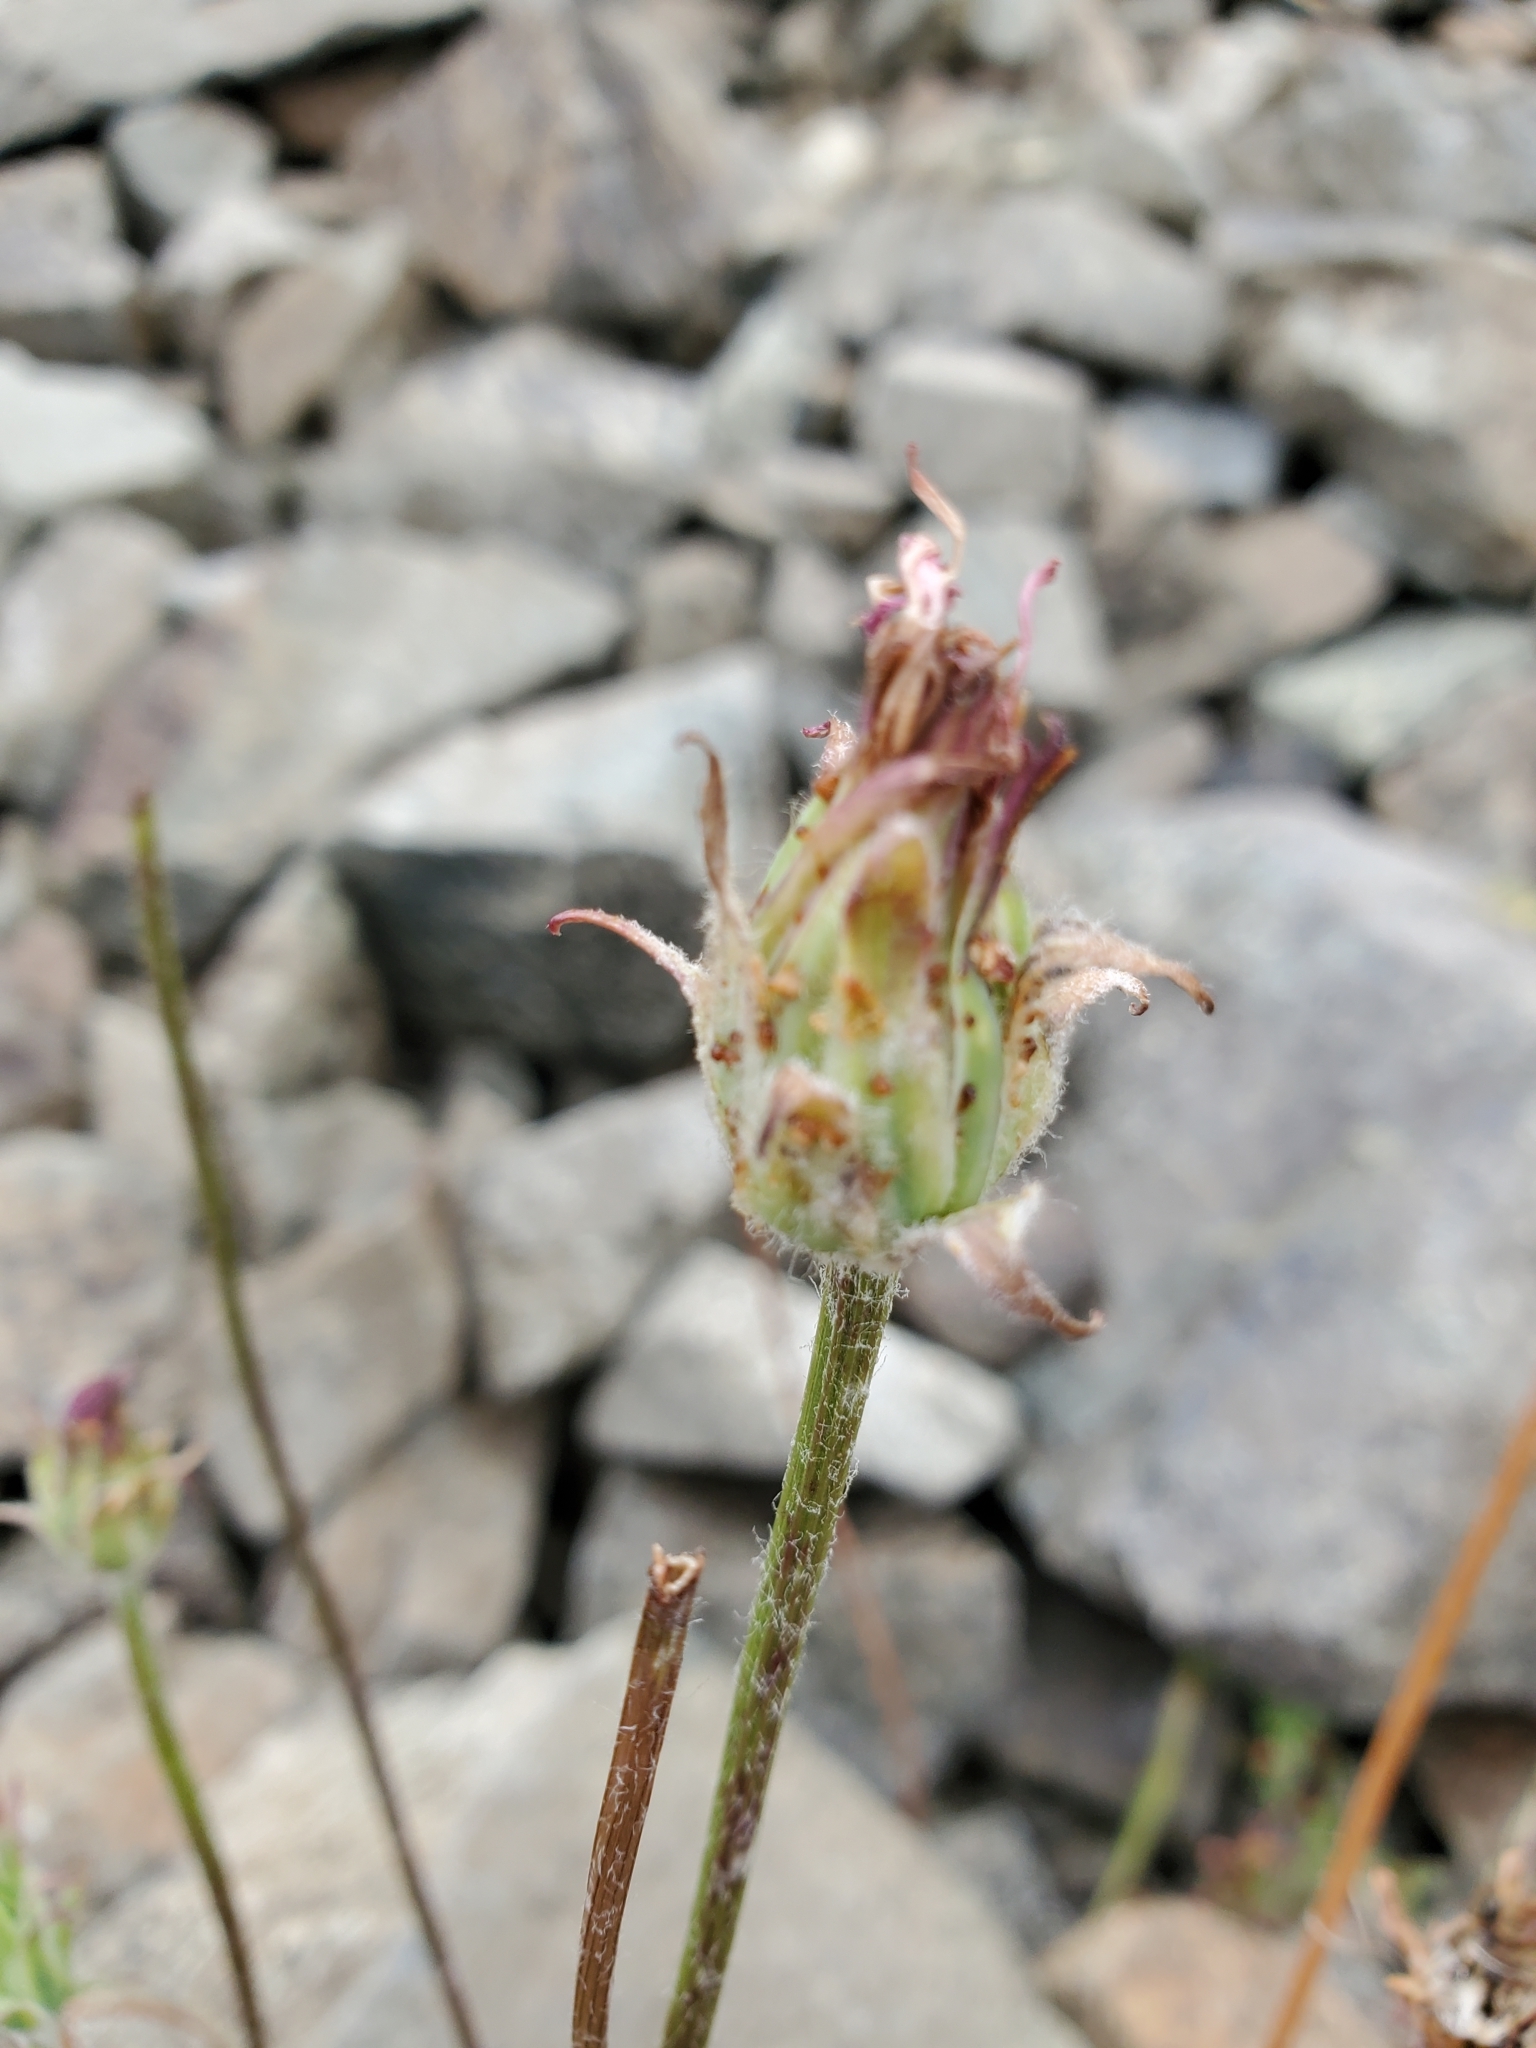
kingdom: Plantae
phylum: Tracheophyta
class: Magnoliopsida
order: Asterales
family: Asteraceae
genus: Agoseris
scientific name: Agoseris aurantiaca
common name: Mountain agoseris
